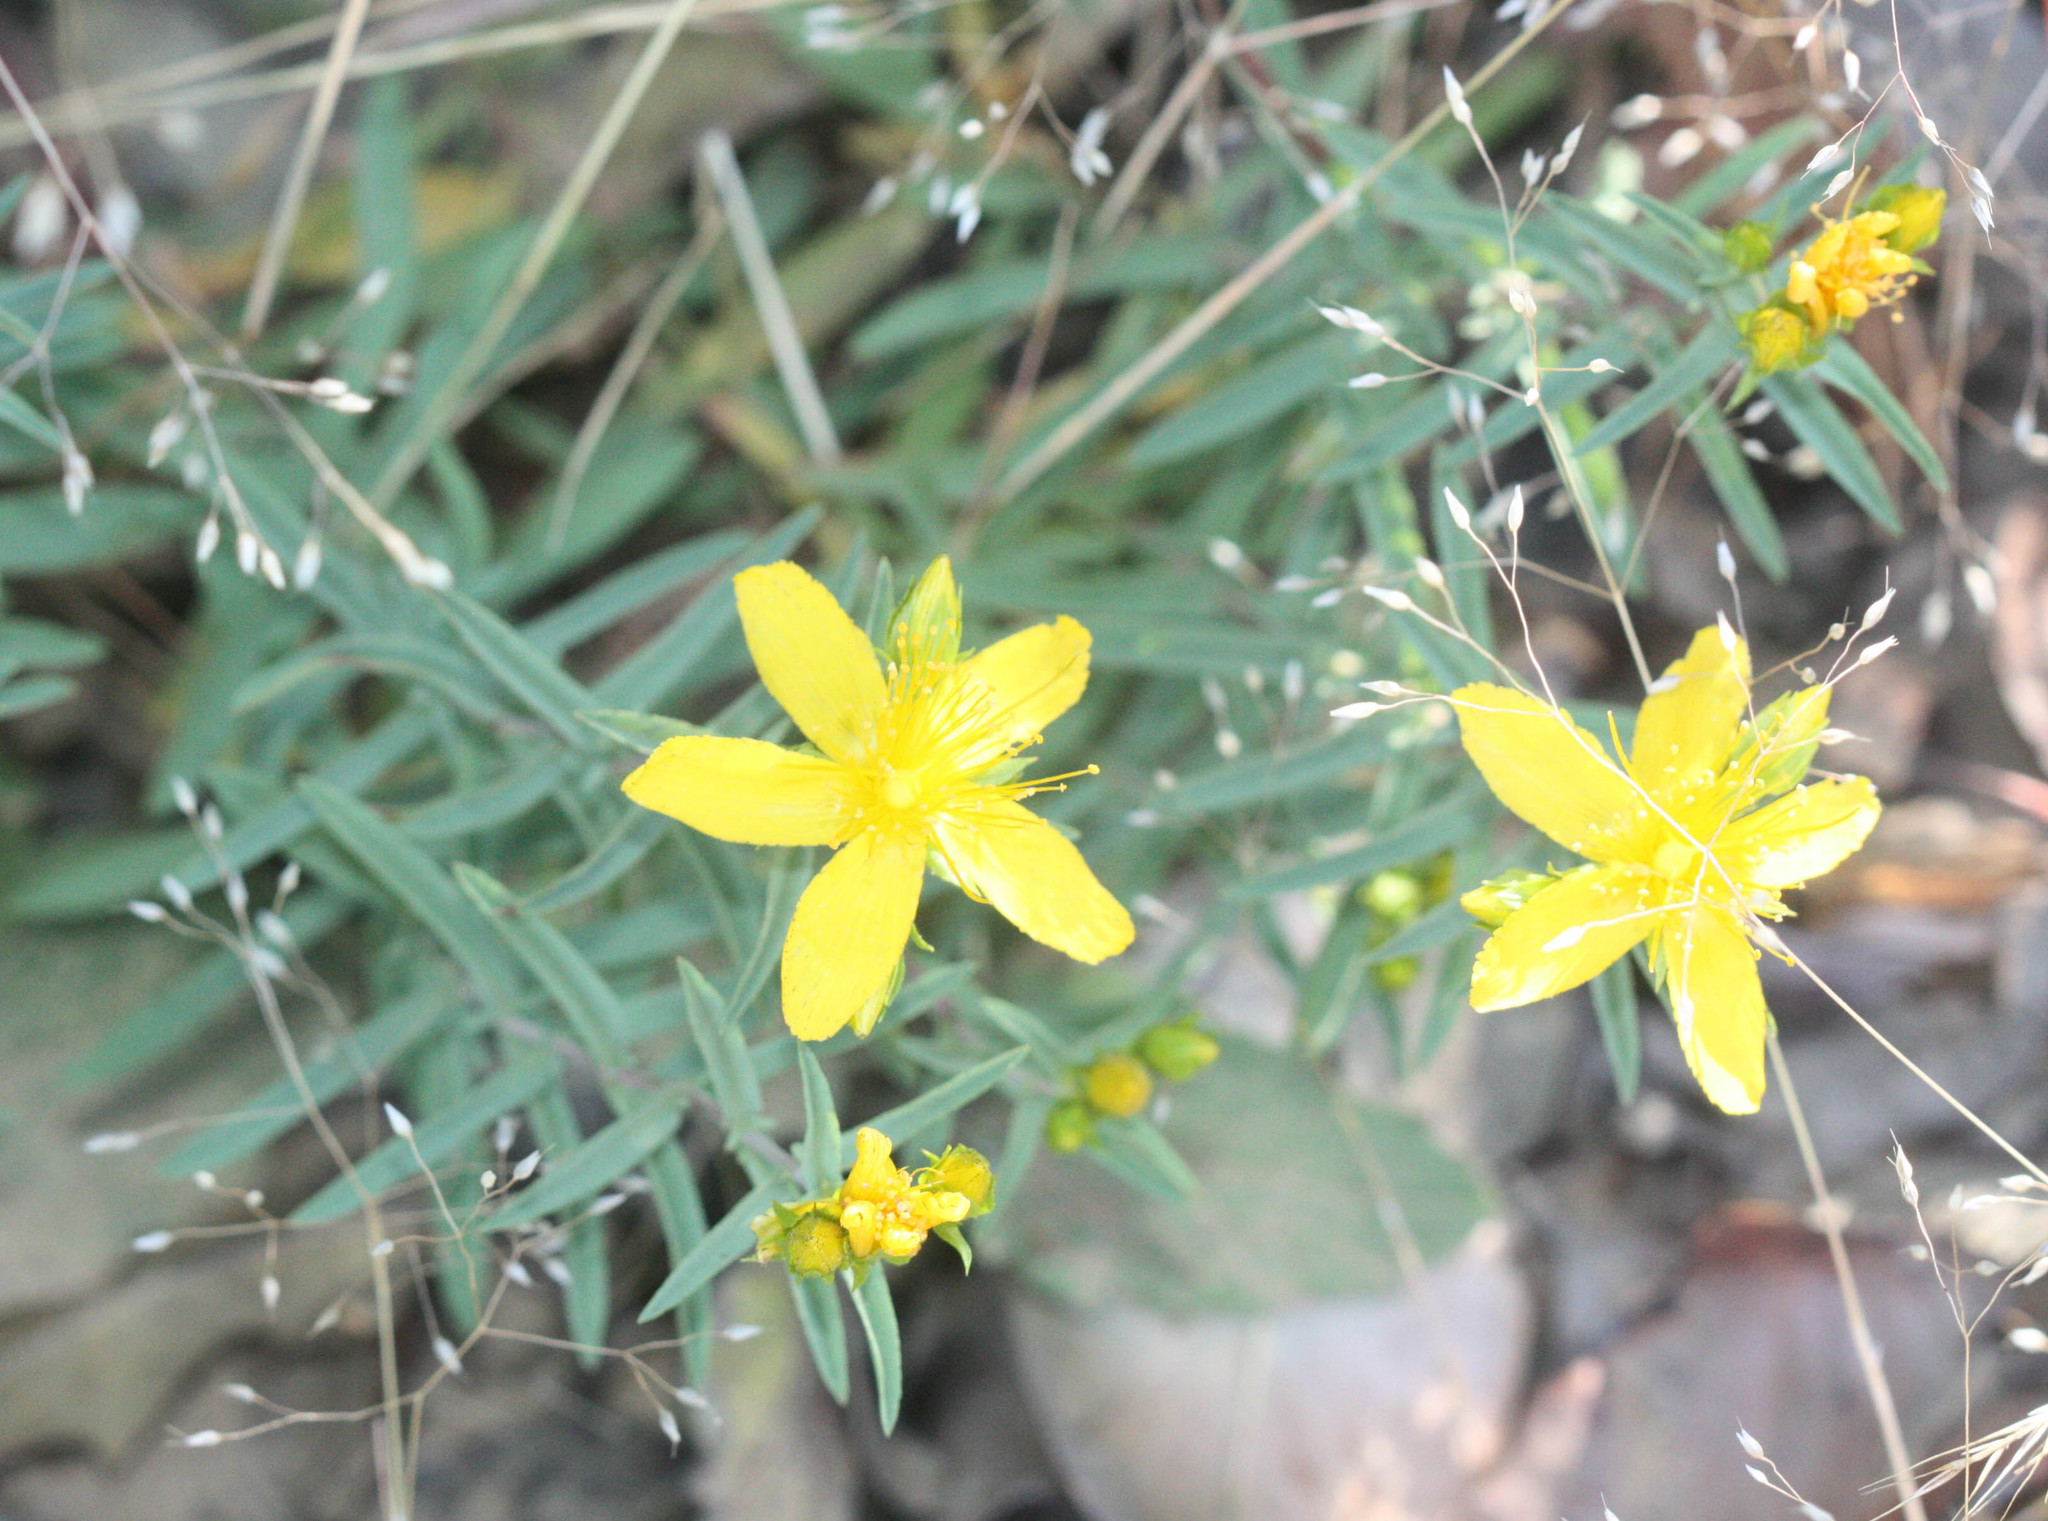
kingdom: Plantae
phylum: Tracheophyta
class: Magnoliopsida
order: Malpighiales
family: Hypericaceae
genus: Hypericum
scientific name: Hypericum concinnum
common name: Gold-wire
